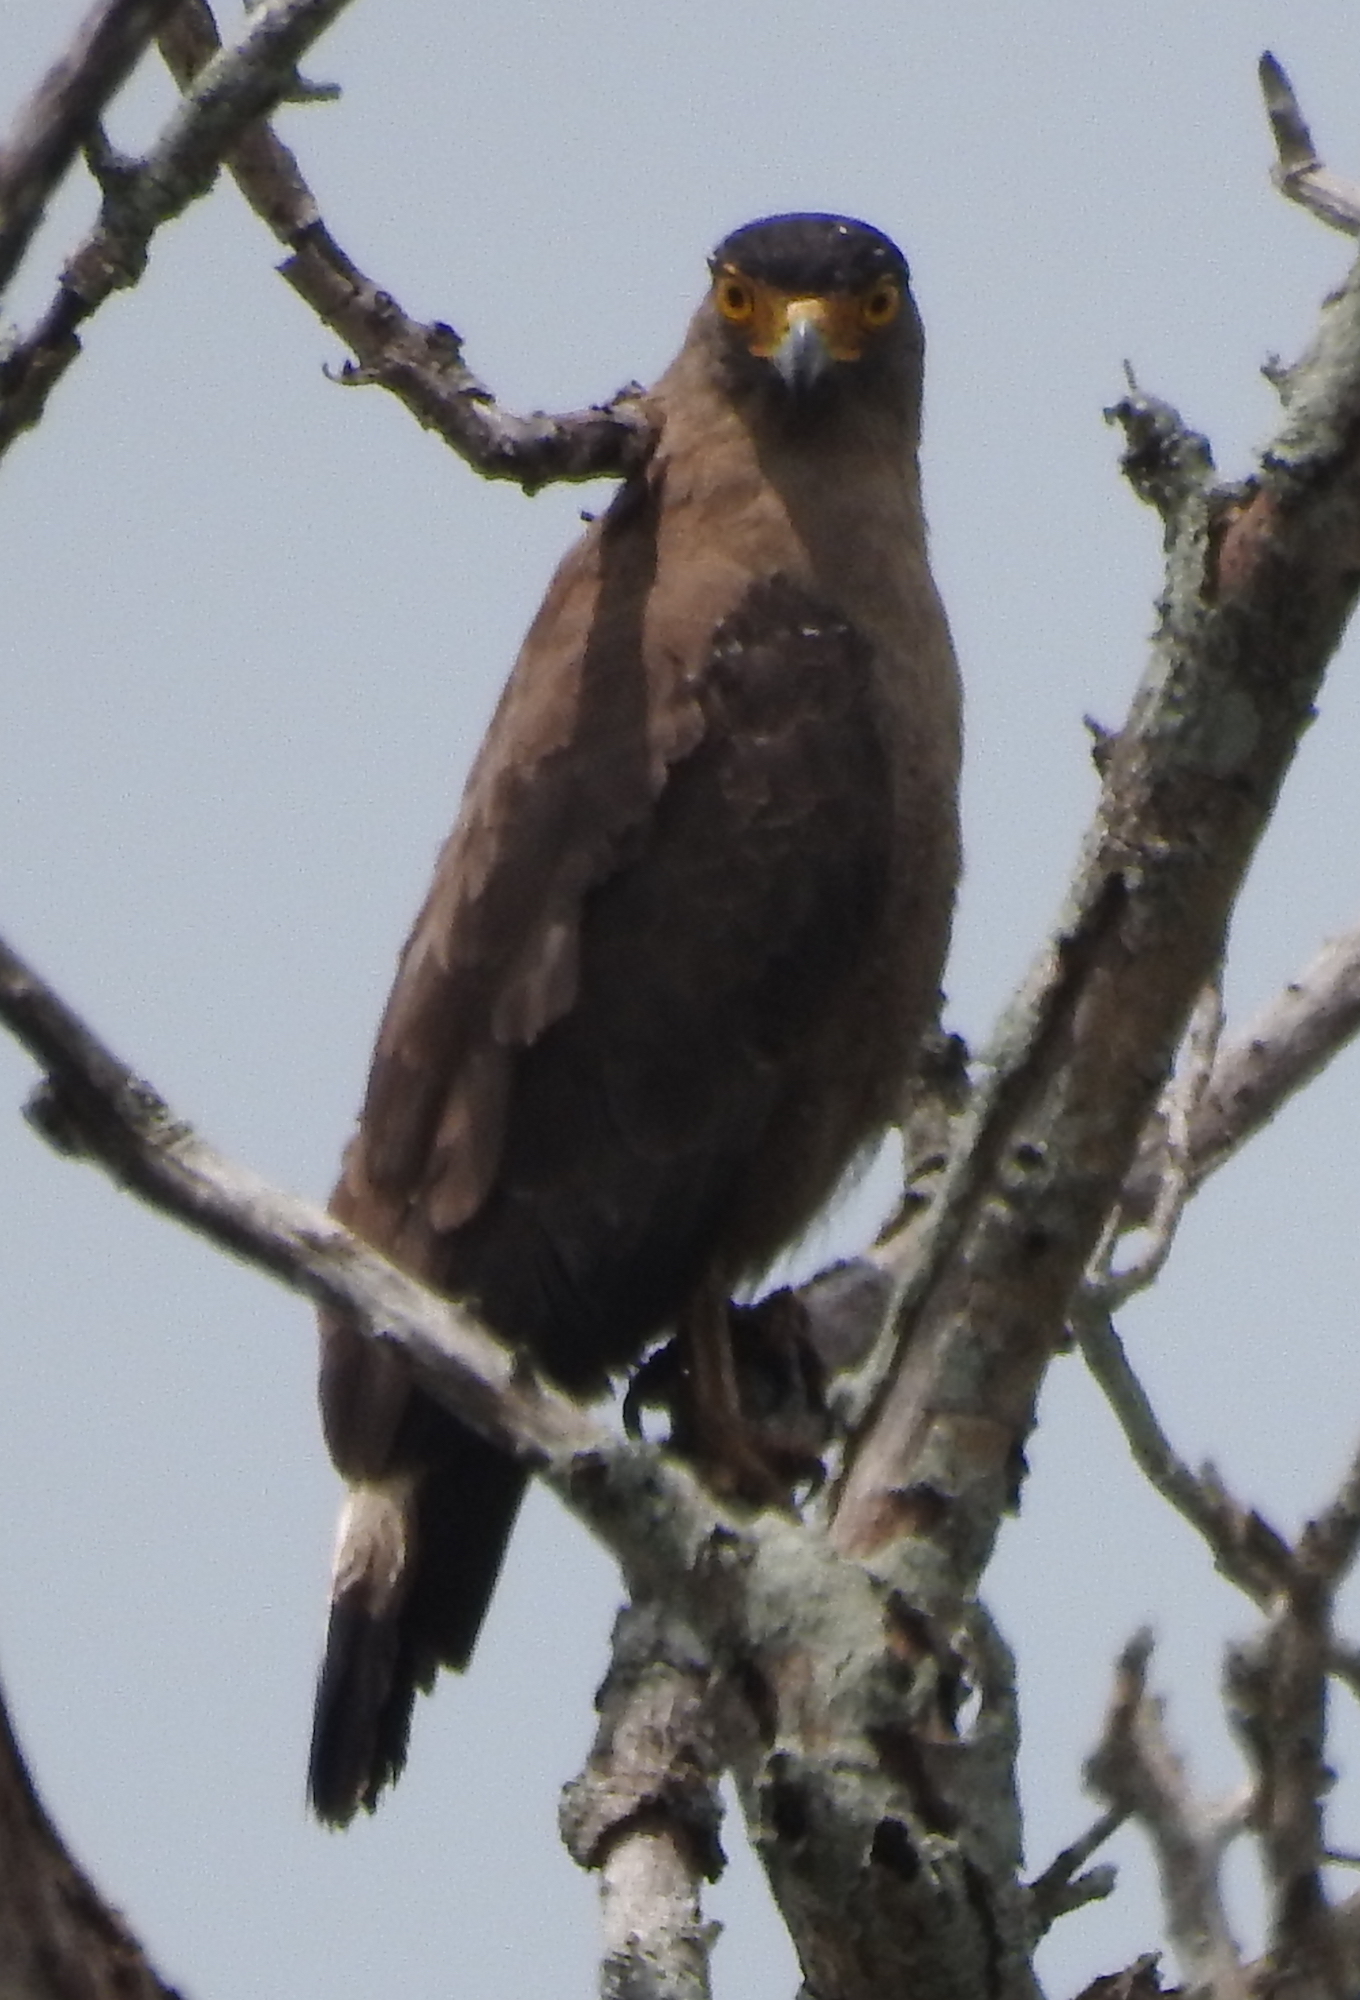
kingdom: Animalia
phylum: Chordata
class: Aves
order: Accipitriformes
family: Accipitridae
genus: Spilornis
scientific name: Spilornis cheela
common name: Crested serpent eagle
